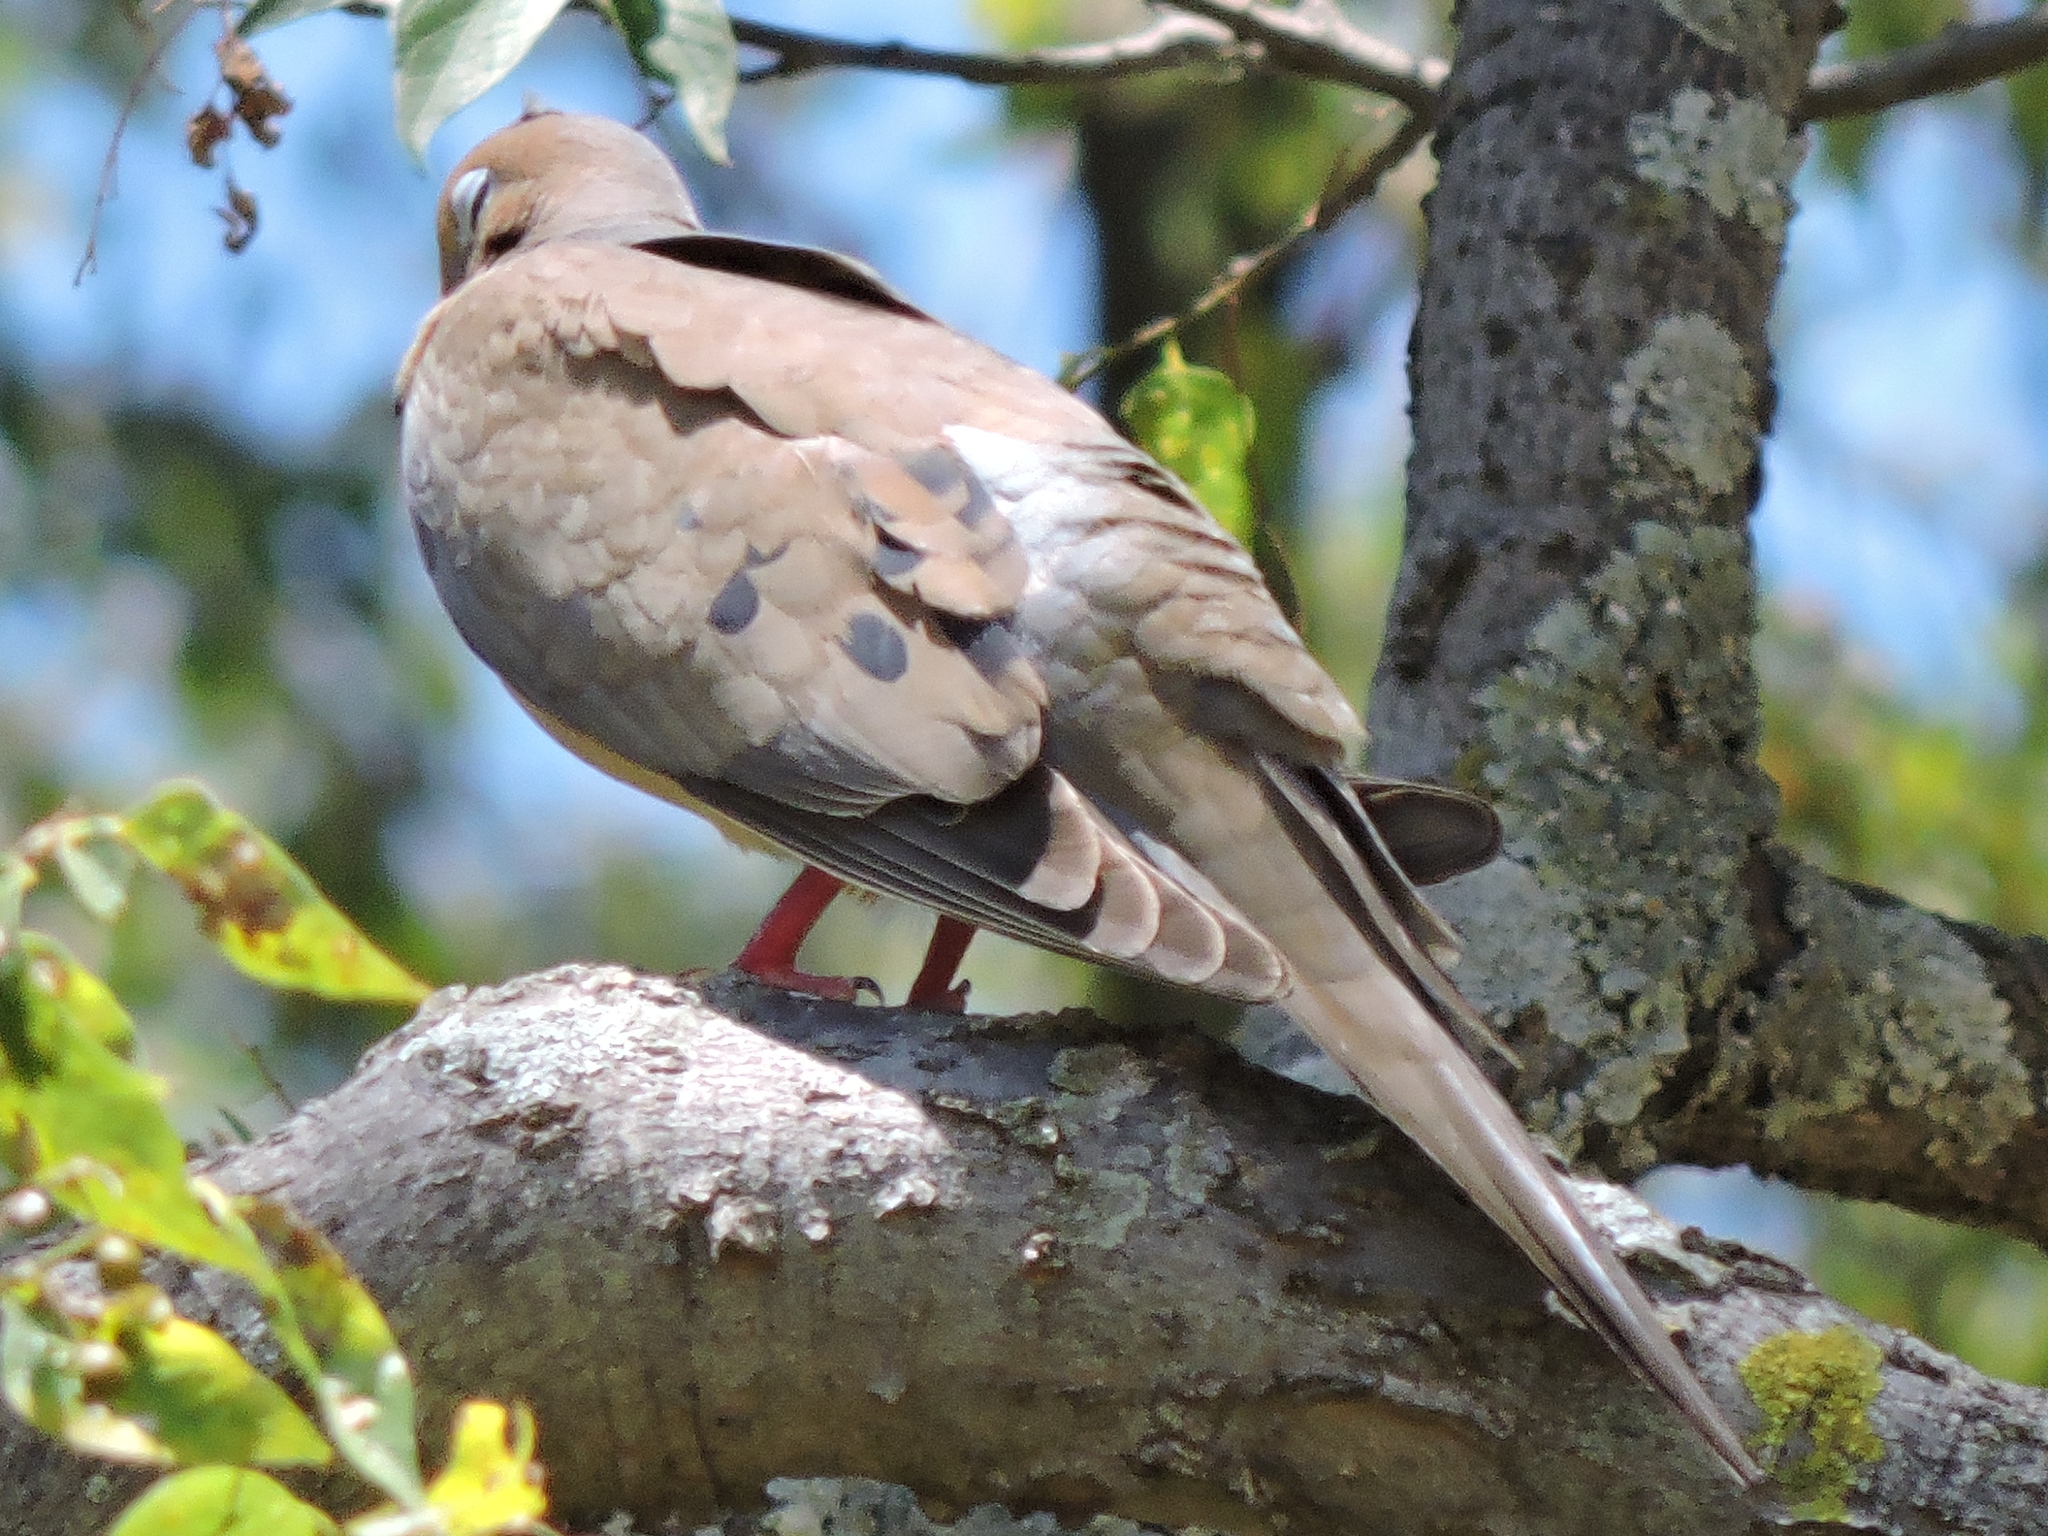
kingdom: Animalia
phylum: Chordata
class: Aves
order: Columbiformes
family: Columbidae
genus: Zenaida
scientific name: Zenaida macroura
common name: Mourning dove
